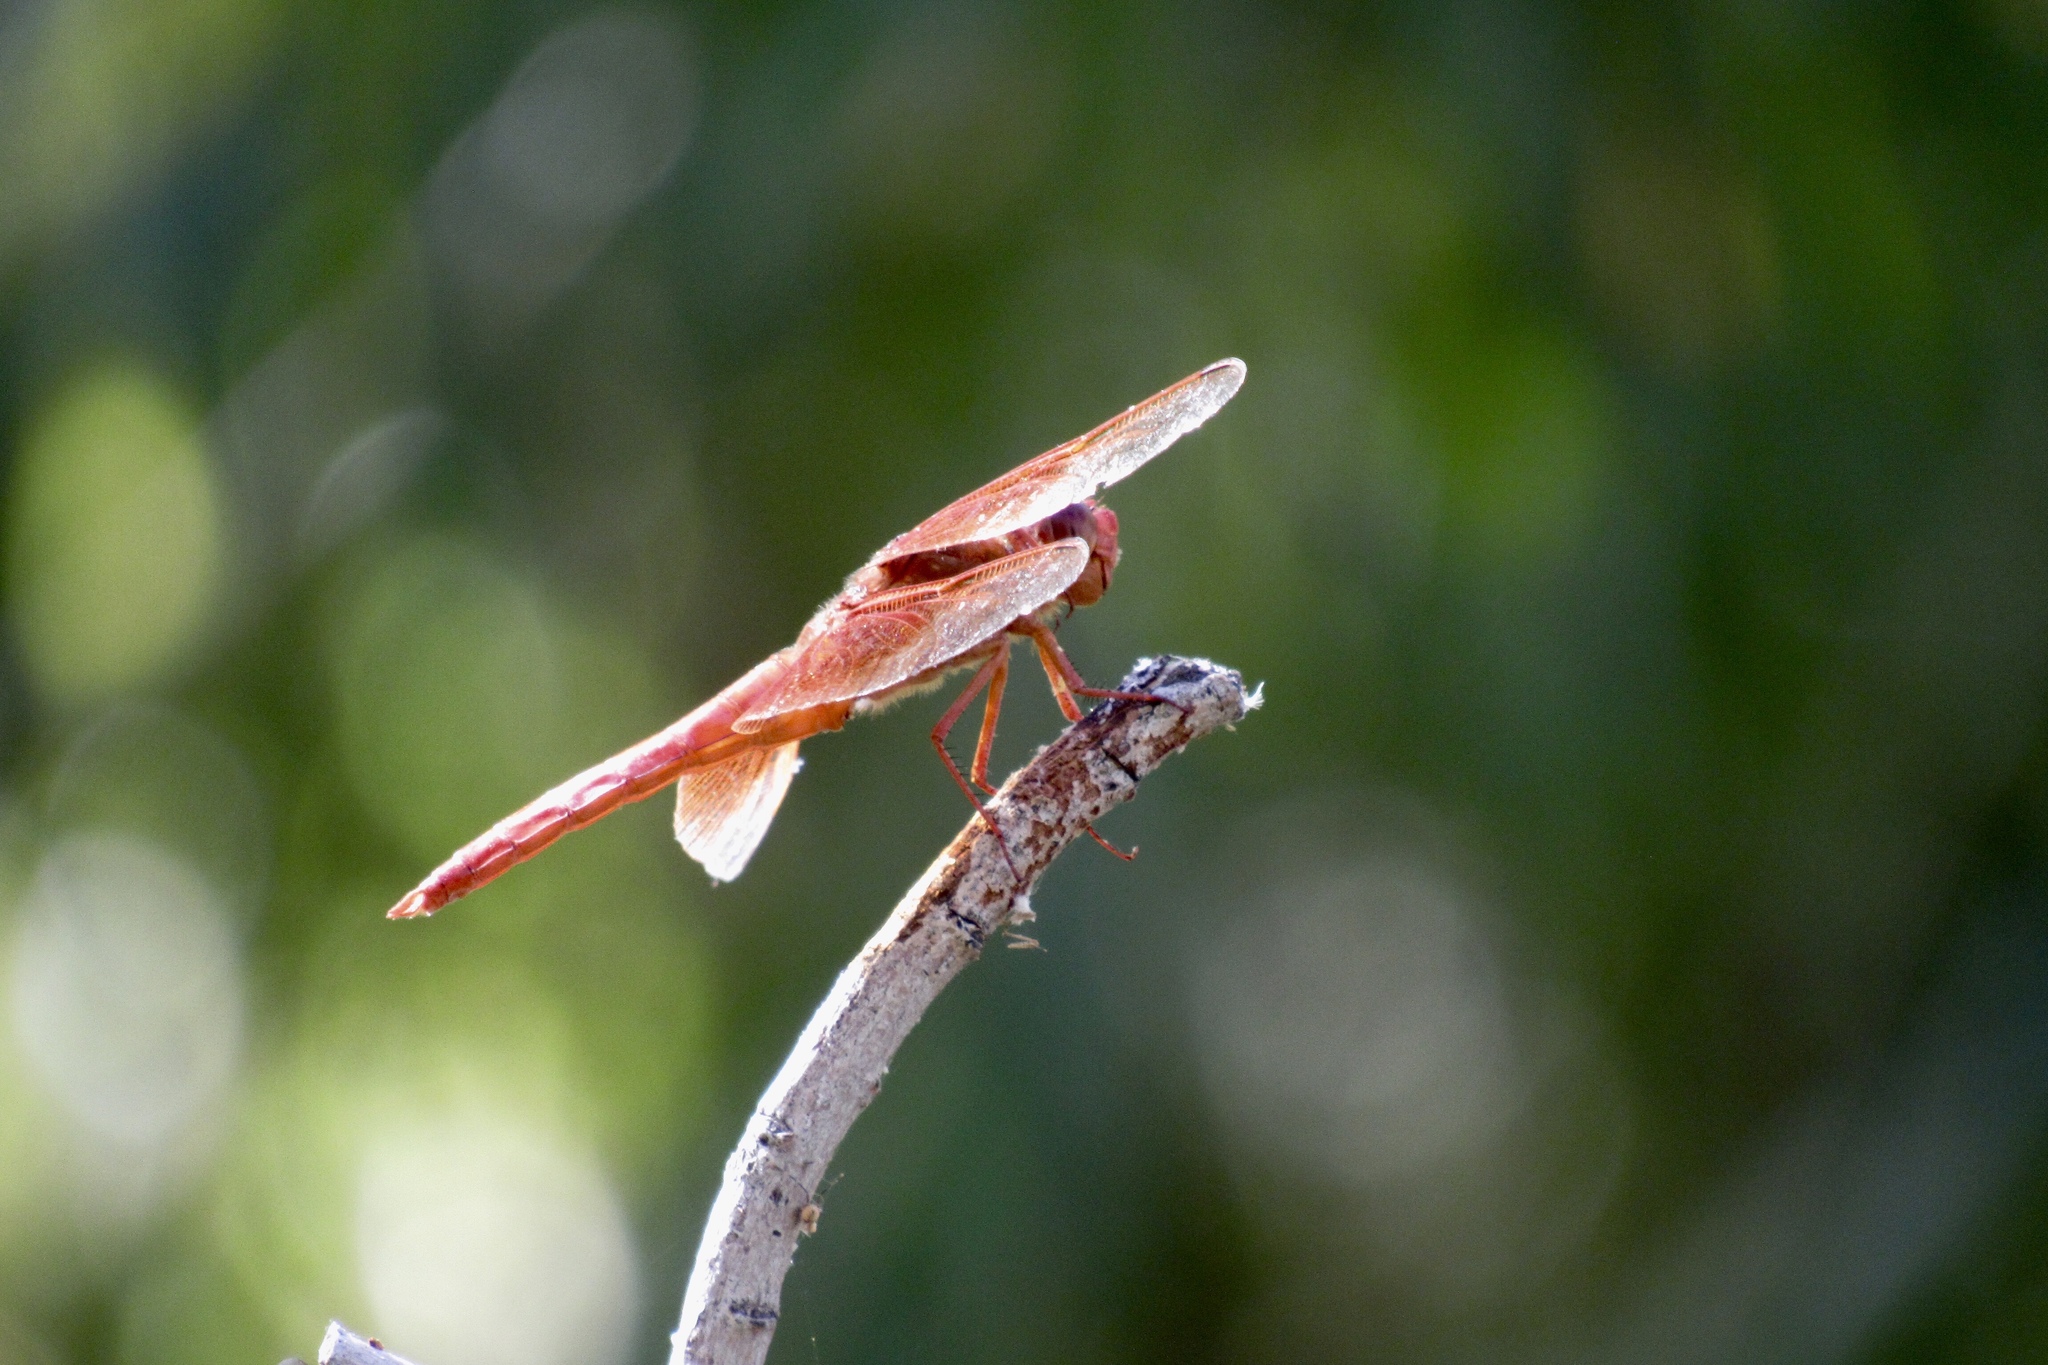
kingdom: Animalia
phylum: Arthropoda
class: Insecta
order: Odonata
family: Libellulidae
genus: Libellula
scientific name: Libellula saturata
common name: Flame skimmer
